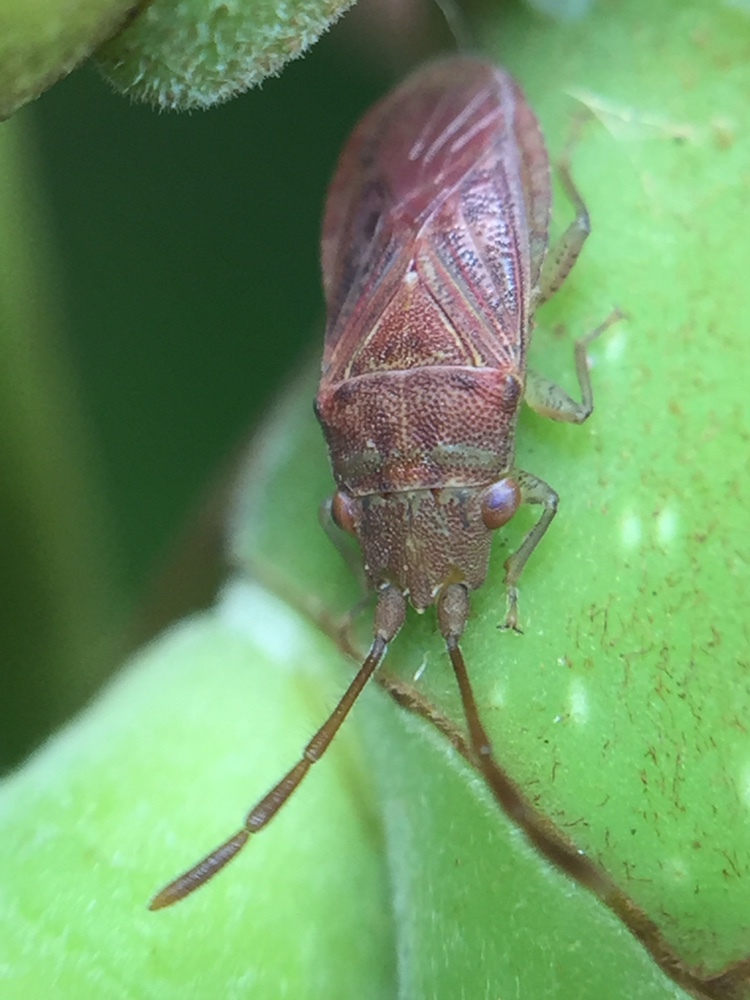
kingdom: Animalia
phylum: Arthropoda
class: Insecta
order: Hemiptera
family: Meschiidae
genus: Meschia
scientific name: Meschia barrowensis
